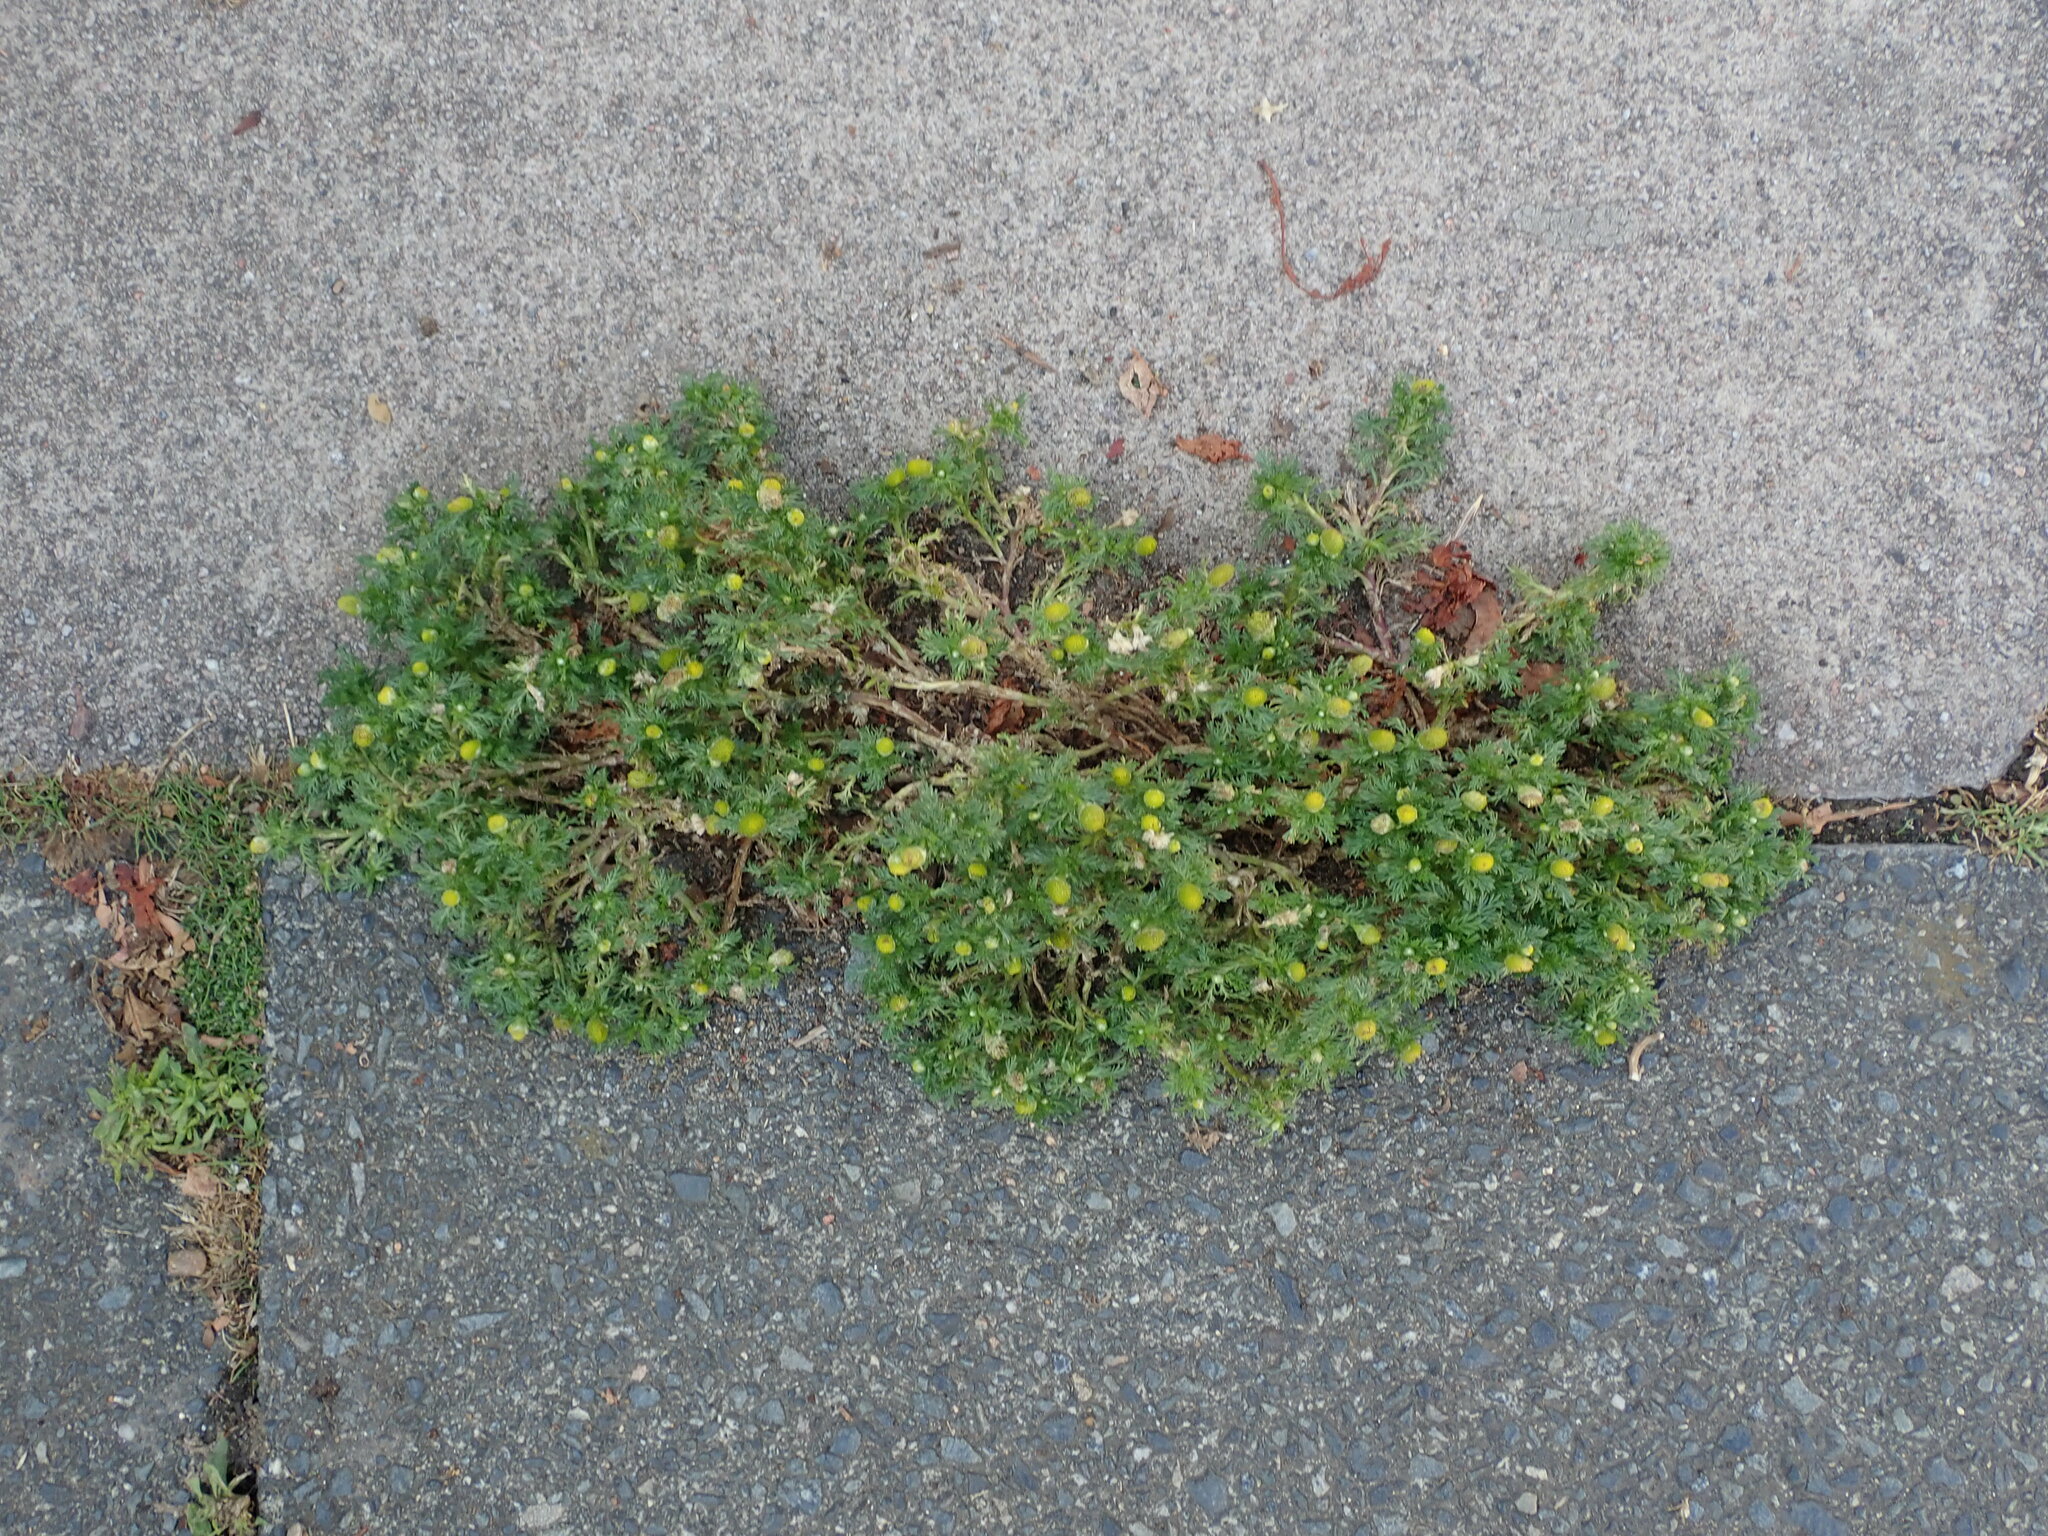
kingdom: Plantae
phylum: Tracheophyta
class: Magnoliopsida
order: Asterales
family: Asteraceae
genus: Matricaria
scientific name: Matricaria discoidea
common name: Disc mayweed
